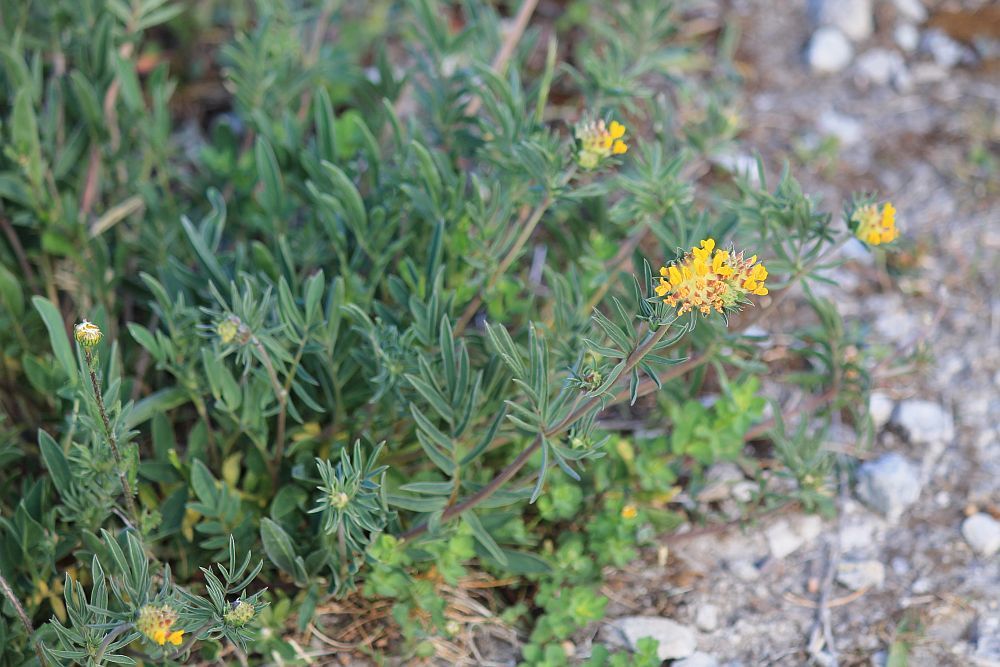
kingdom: Plantae
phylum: Tracheophyta
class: Magnoliopsida
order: Fabales
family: Fabaceae
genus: Anthyllis
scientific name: Anthyllis vulneraria
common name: Kidney vetch
